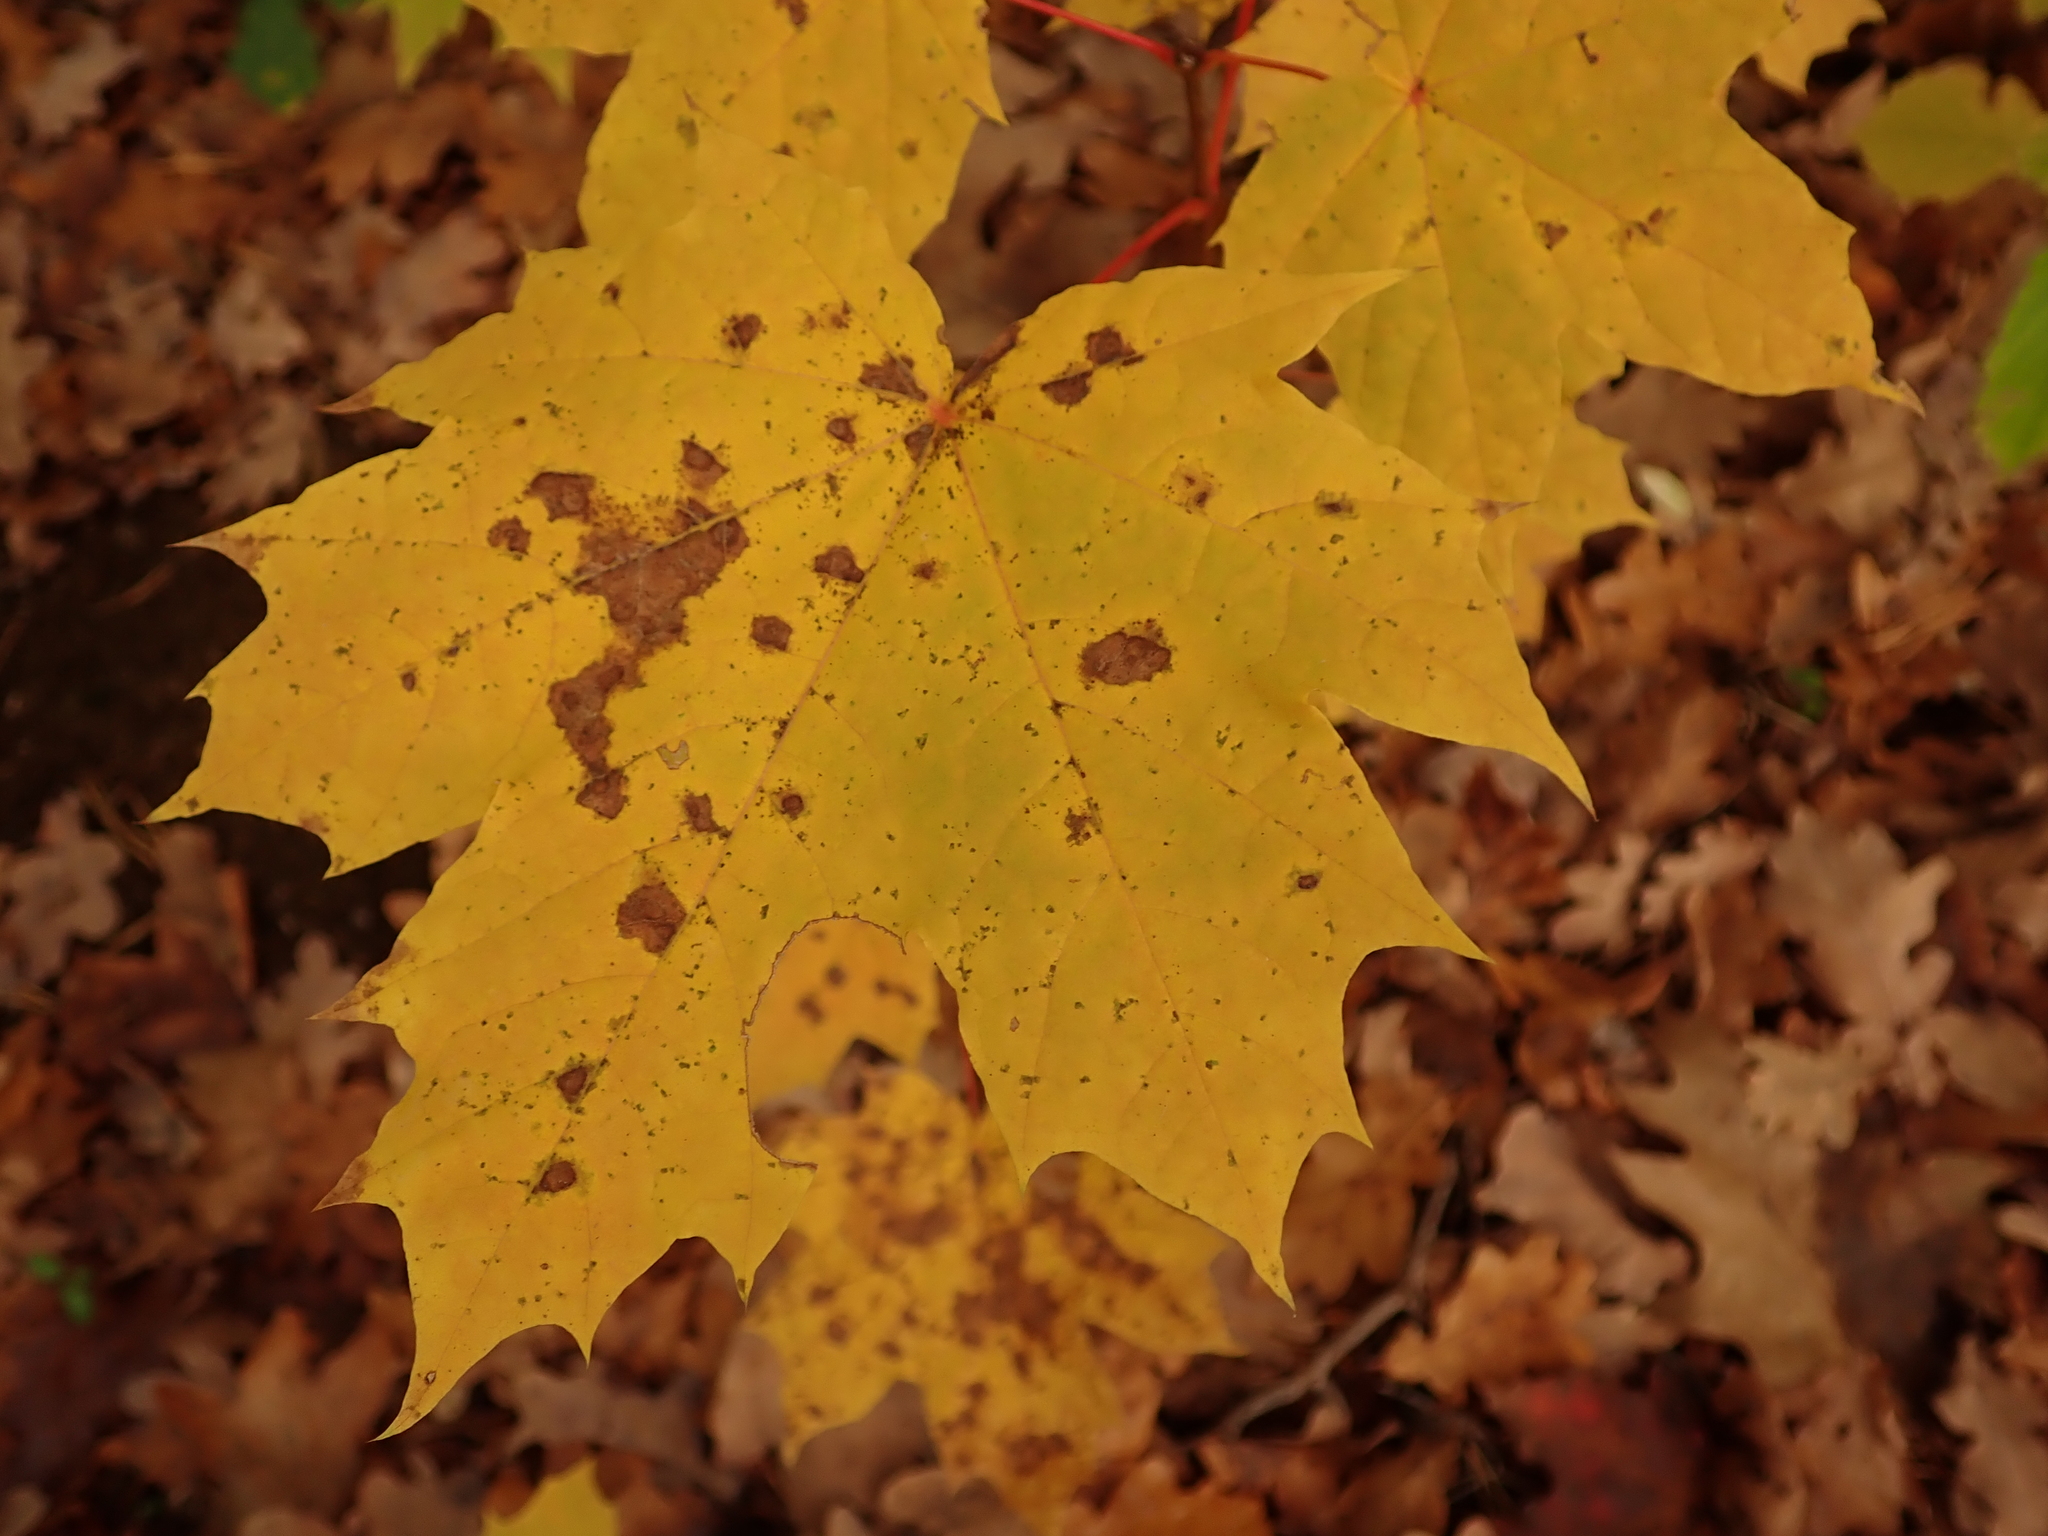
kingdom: Plantae
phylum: Tracheophyta
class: Magnoliopsida
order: Sapindales
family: Sapindaceae
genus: Acer
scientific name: Acer platanoides
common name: Norway maple
